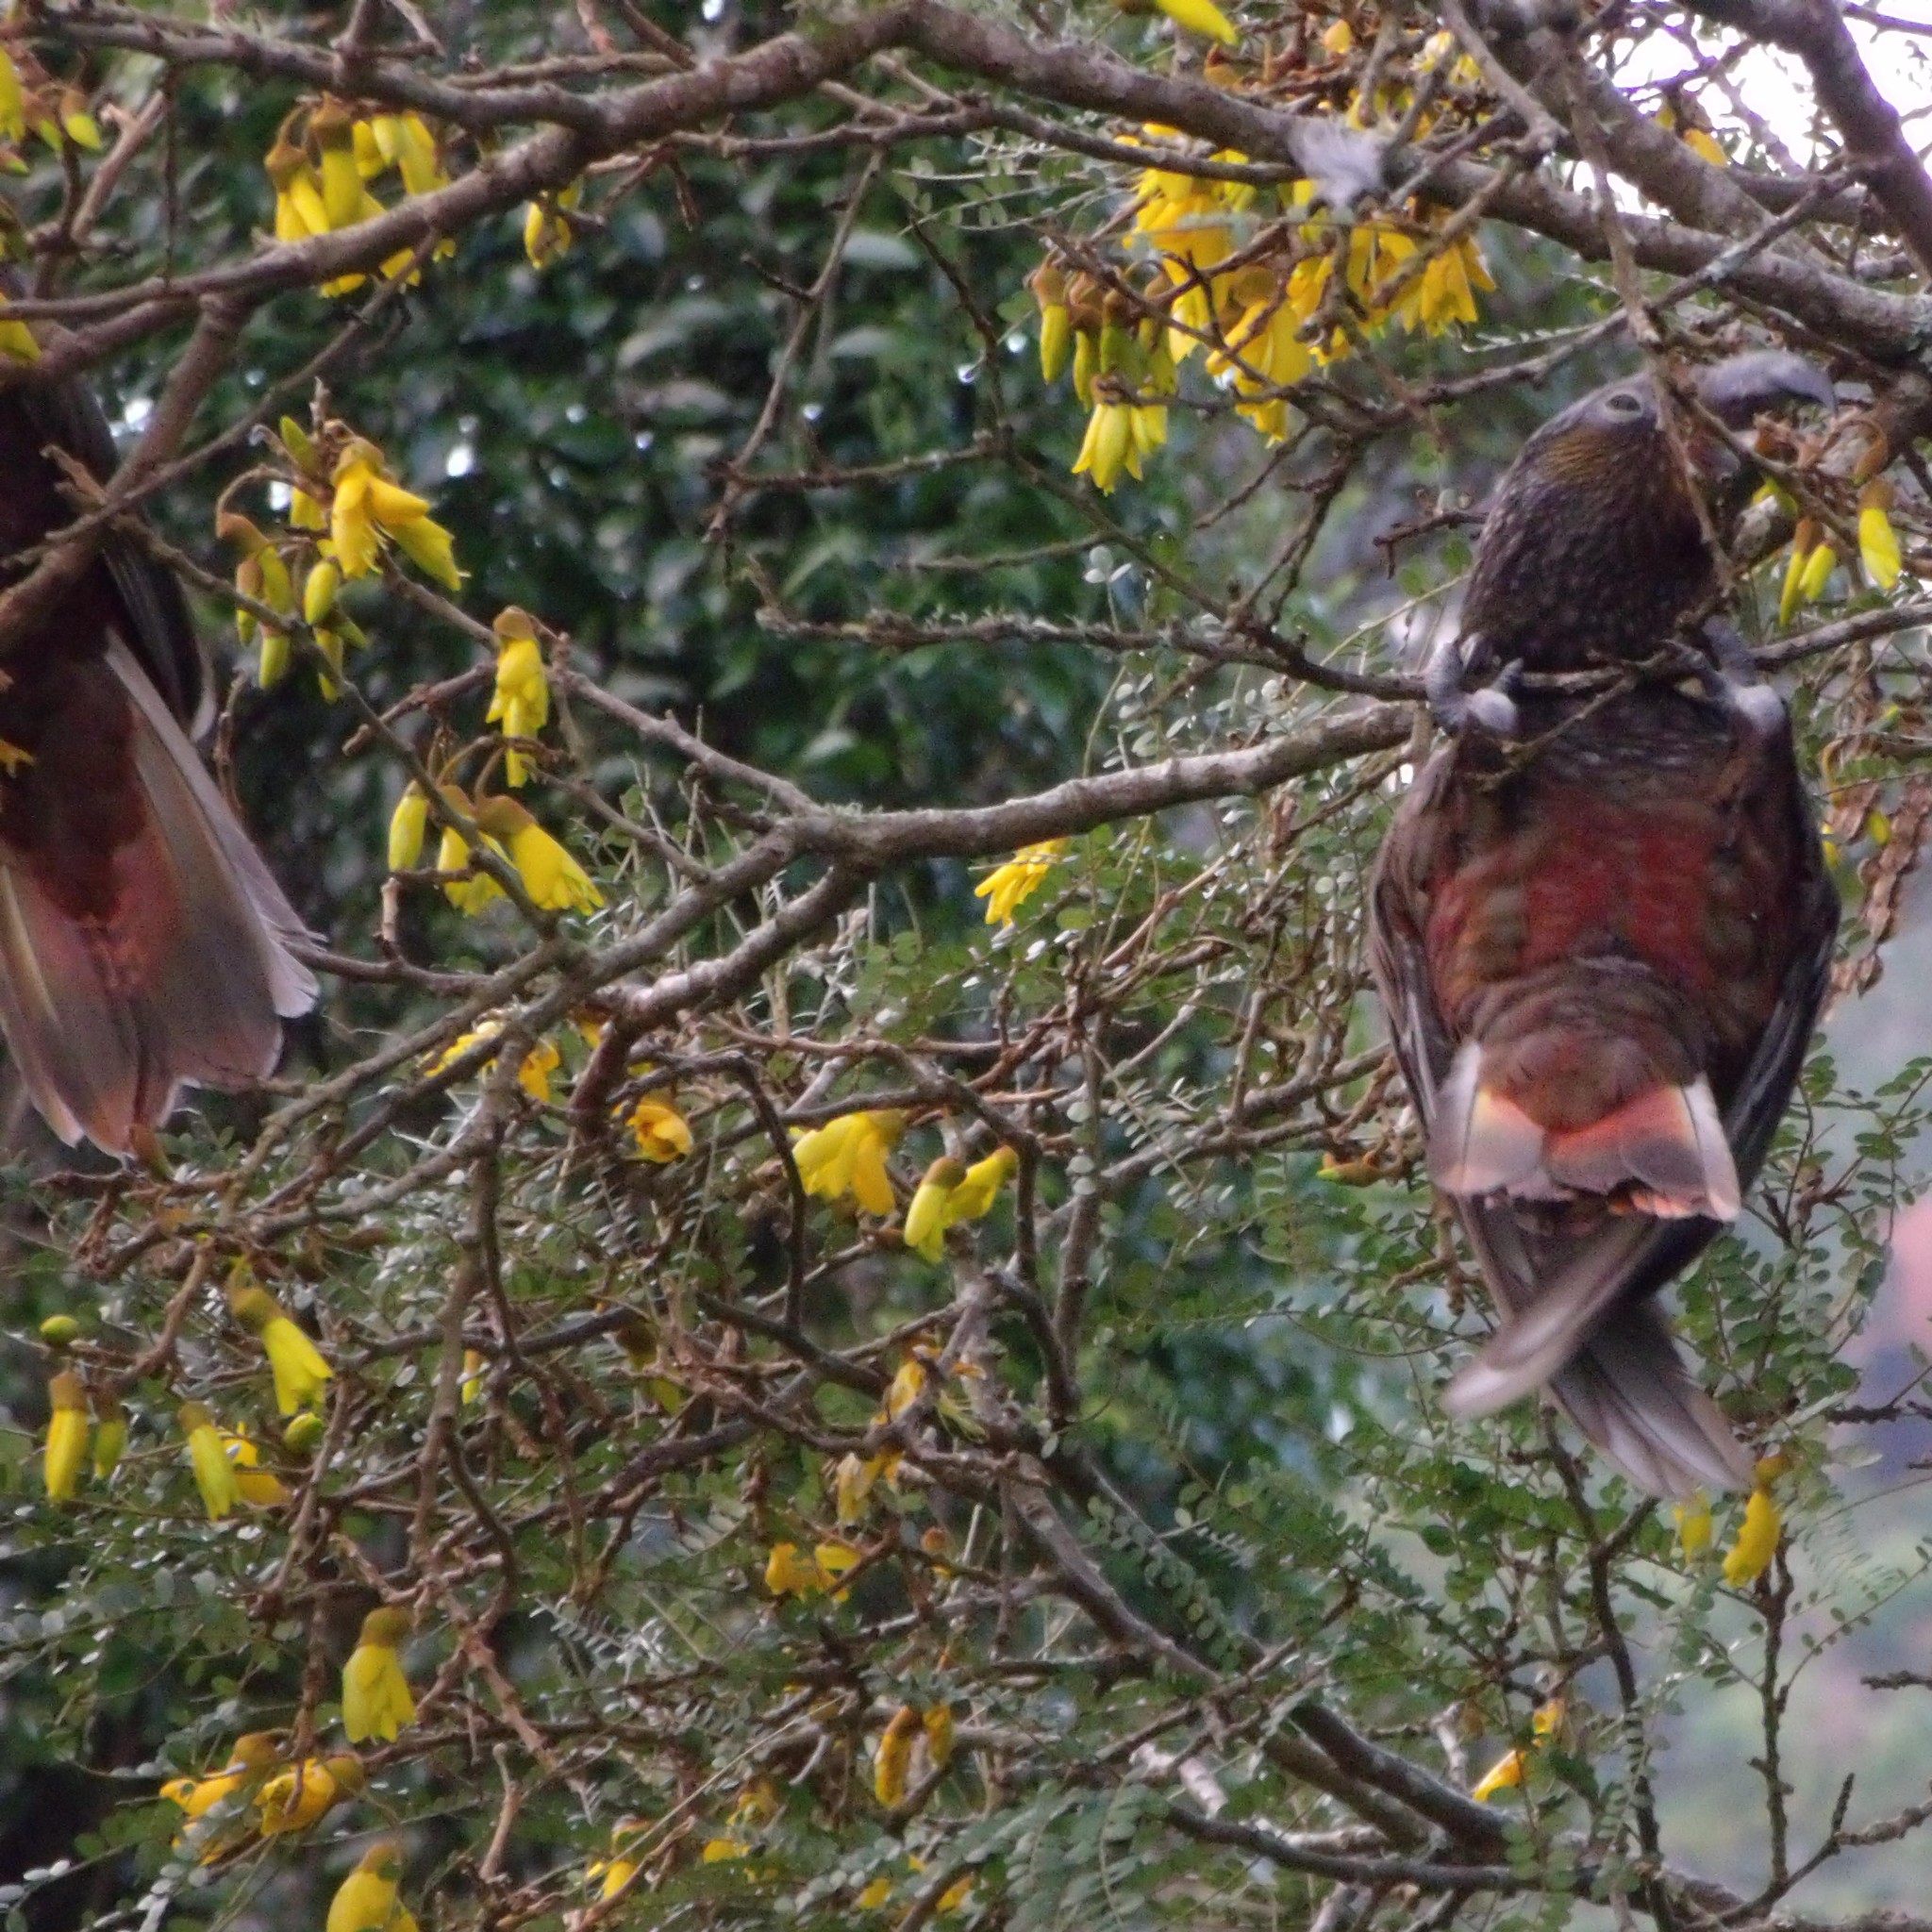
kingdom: Animalia
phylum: Chordata
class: Aves
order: Psittaciformes
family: Psittacidae
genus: Nestor
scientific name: Nestor meridionalis
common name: New zealand kaka
